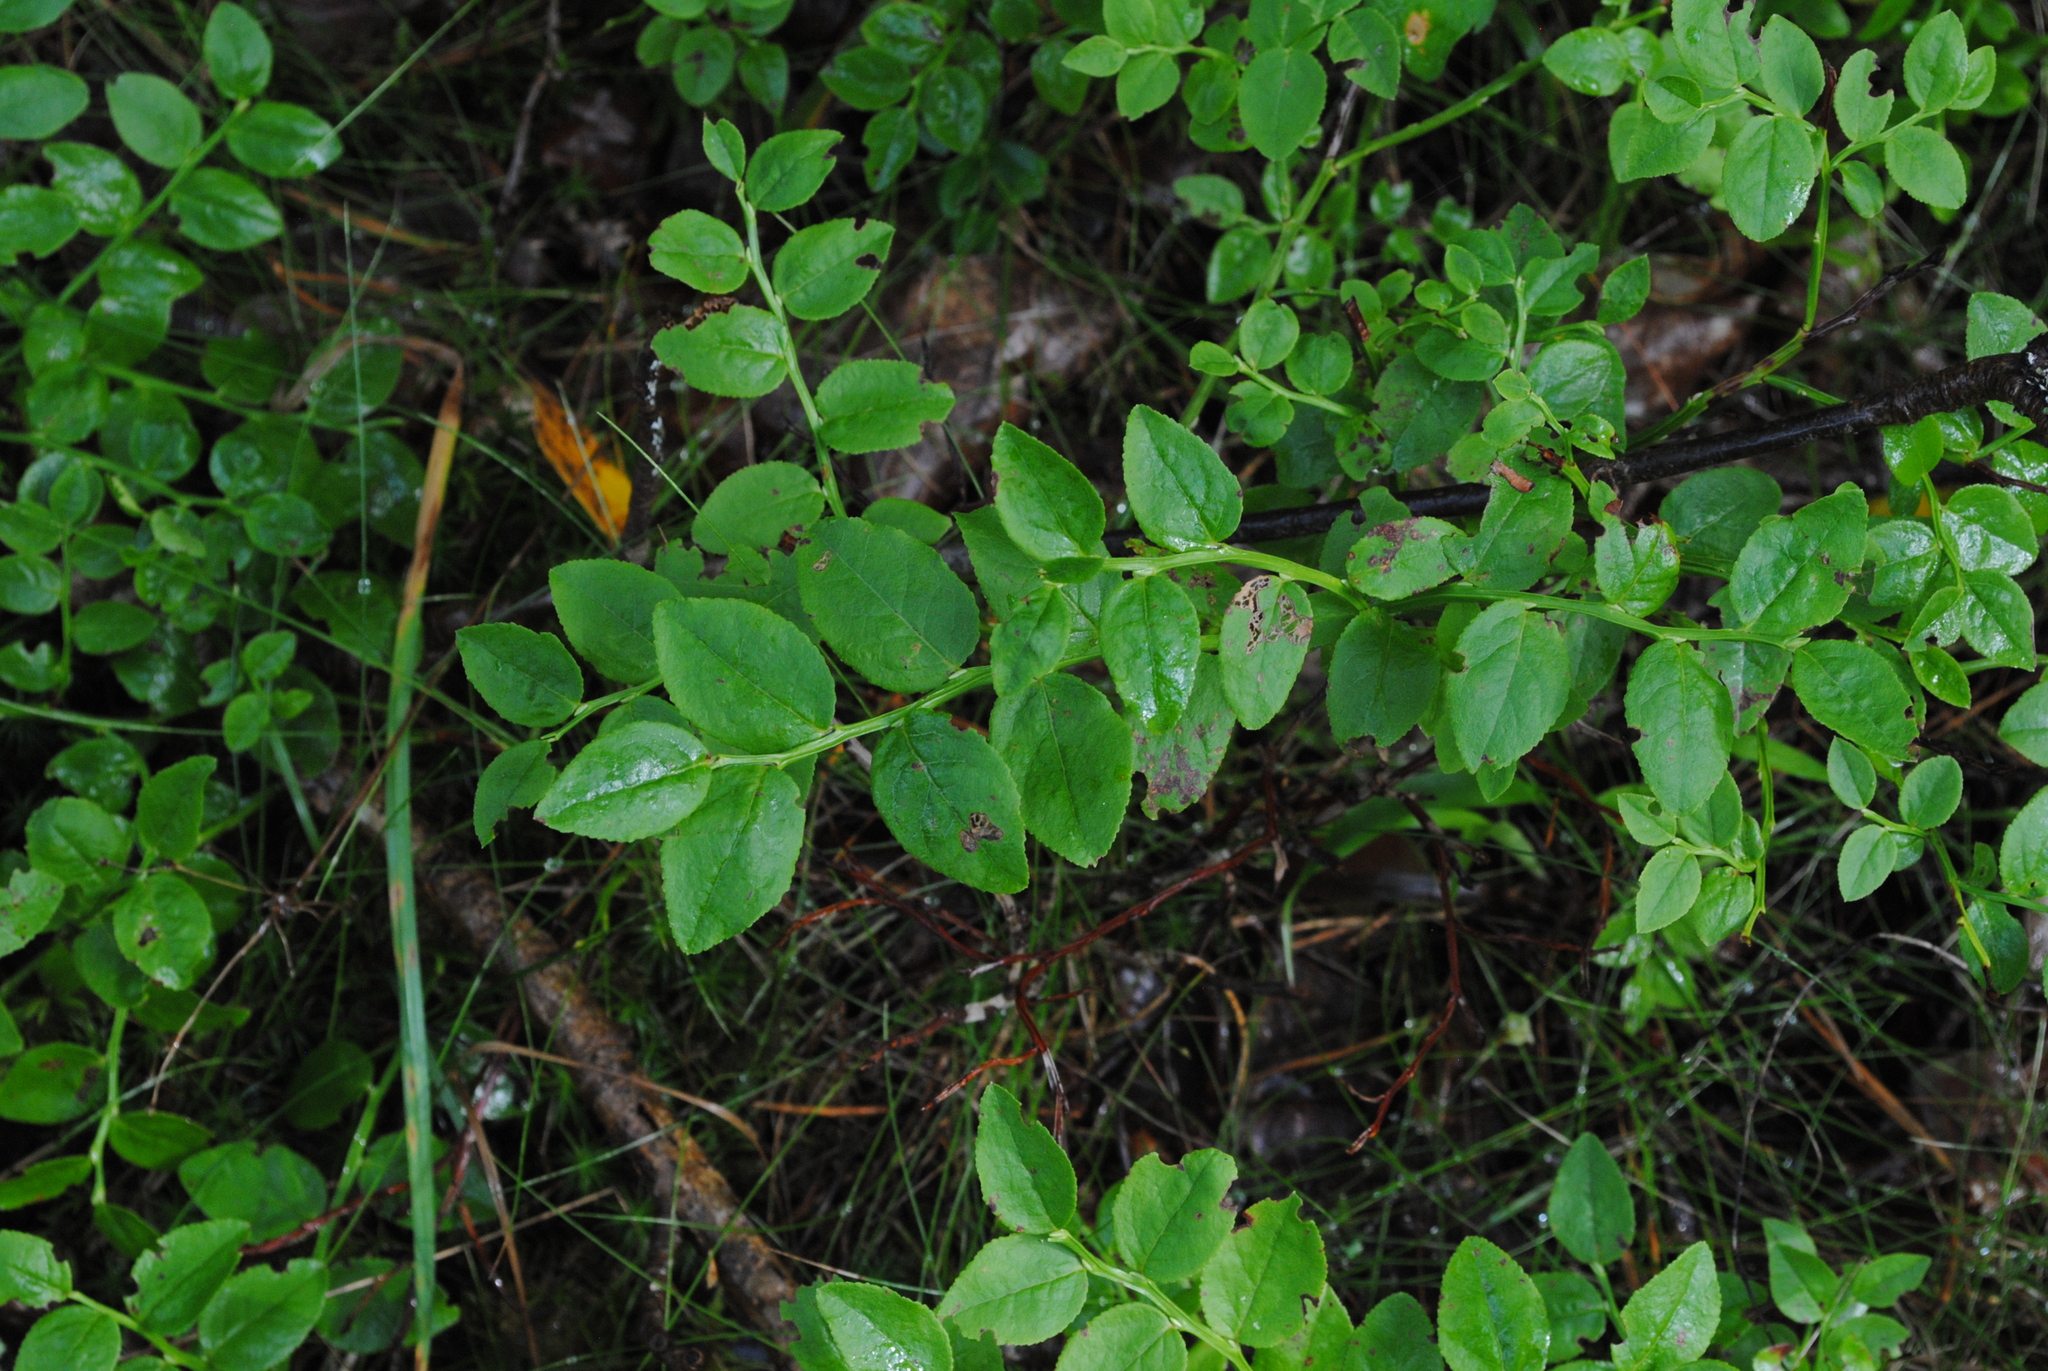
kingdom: Plantae
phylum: Tracheophyta
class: Magnoliopsida
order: Ericales
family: Ericaceae
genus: Vaccinium
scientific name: Vaccinium myrtillus
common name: Bilberry
